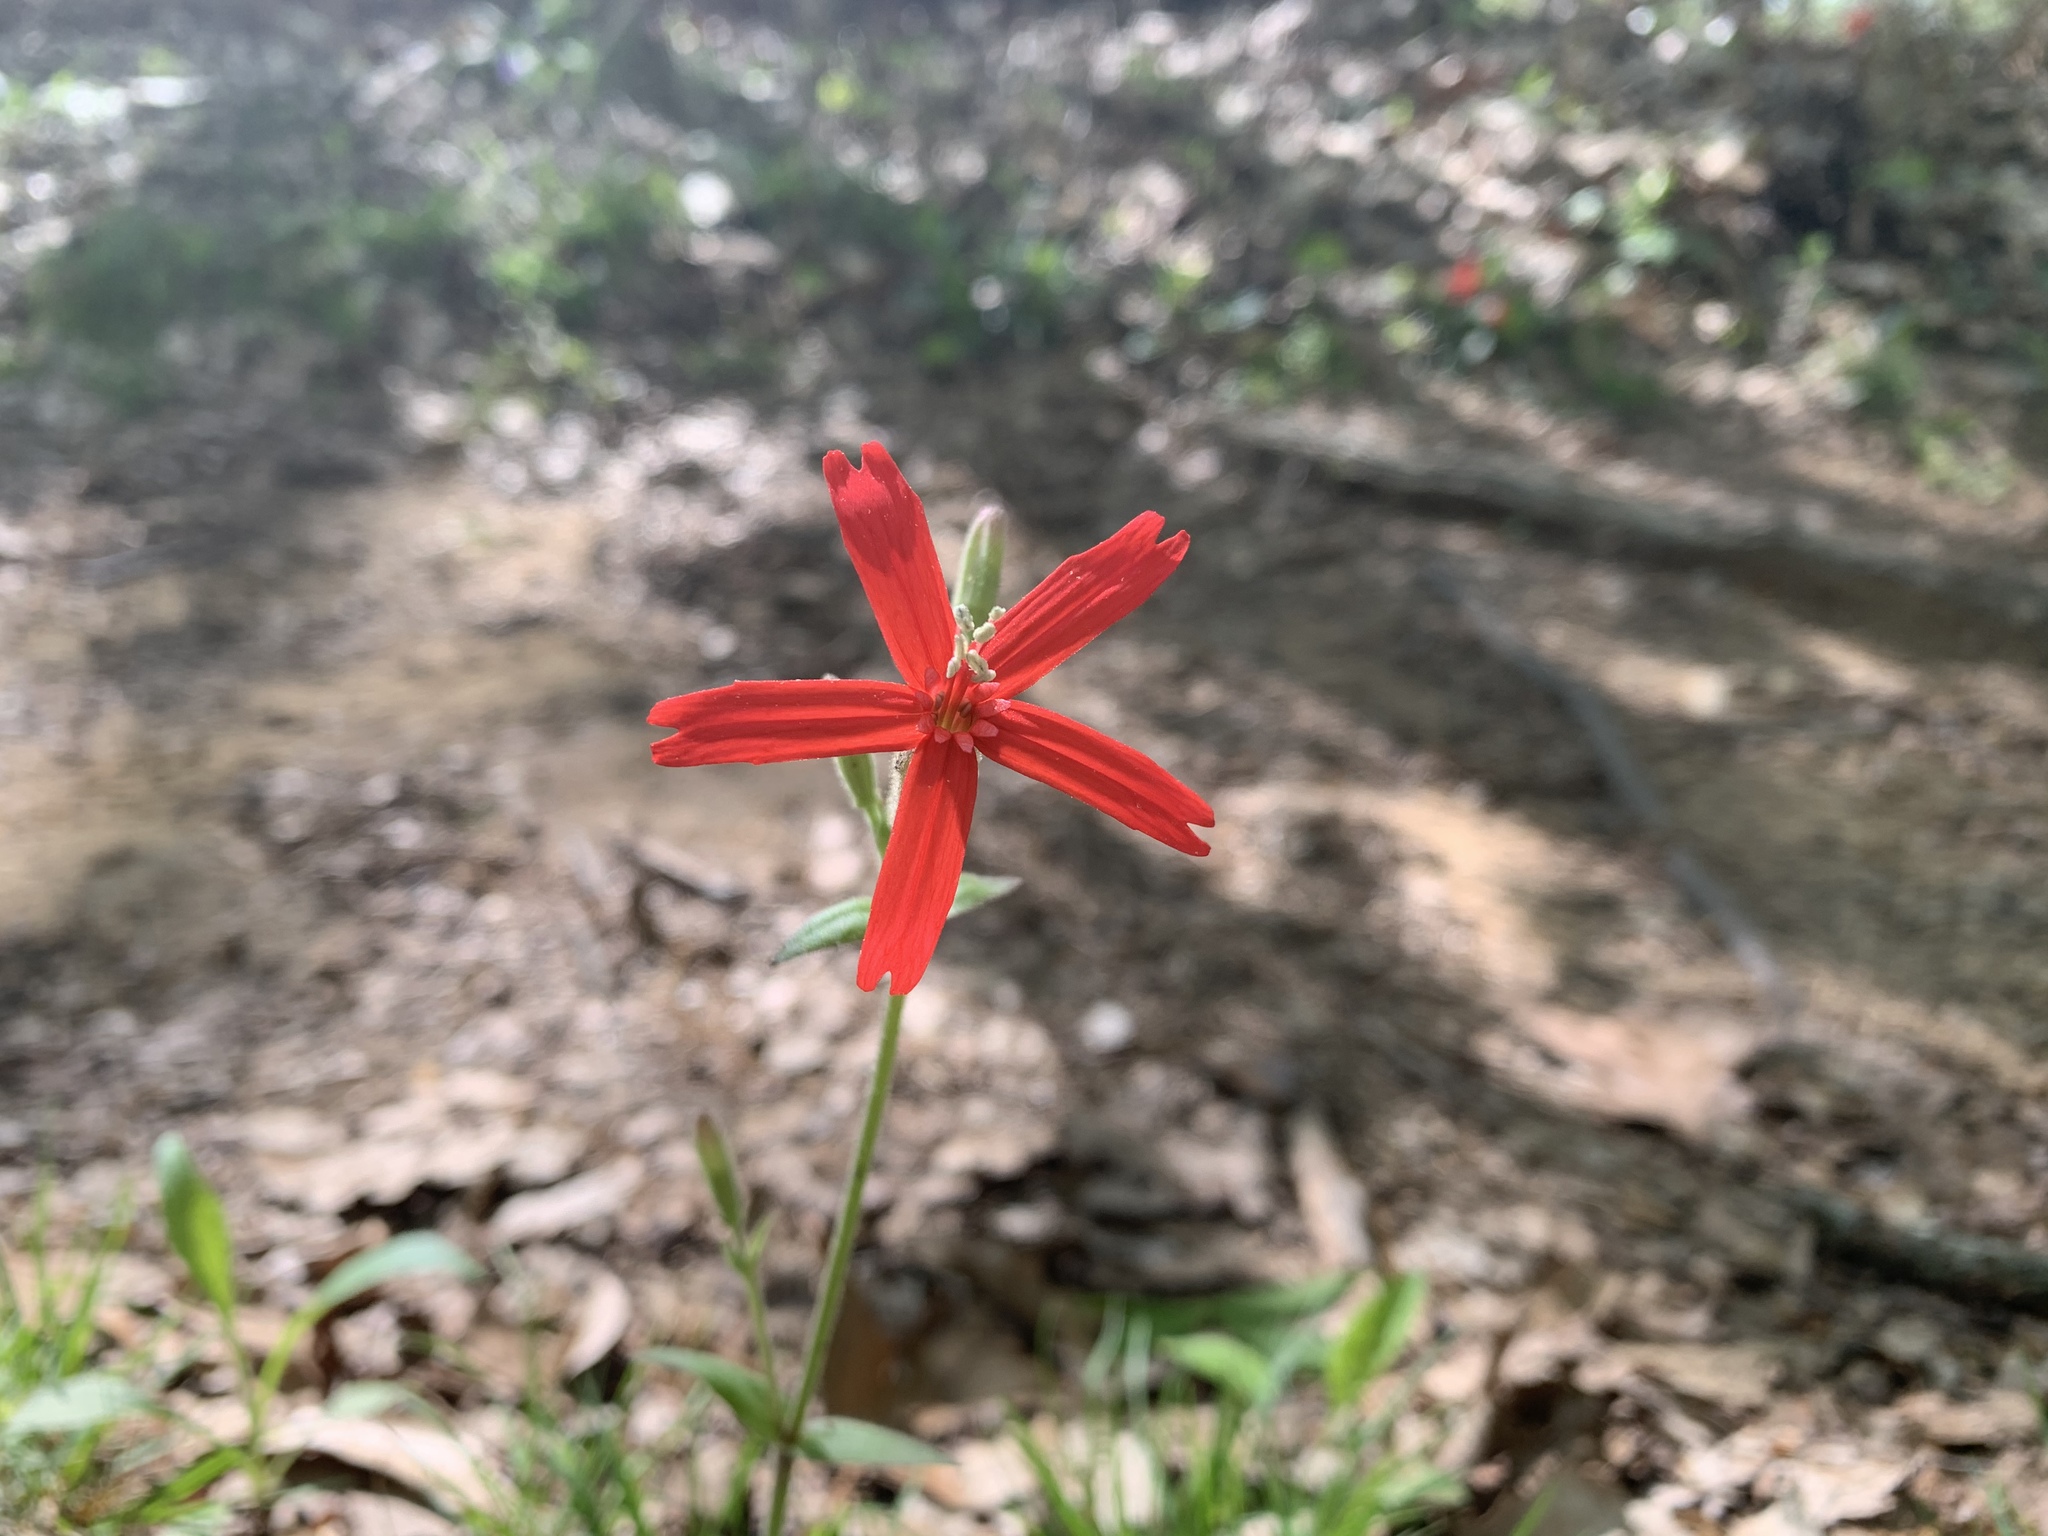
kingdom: Plantae
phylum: Tracheophyta
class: Magnoliopsida
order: Caryophyllales
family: Caryophyllaceae
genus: Silene
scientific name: Silene virginica
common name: Fire-pink
